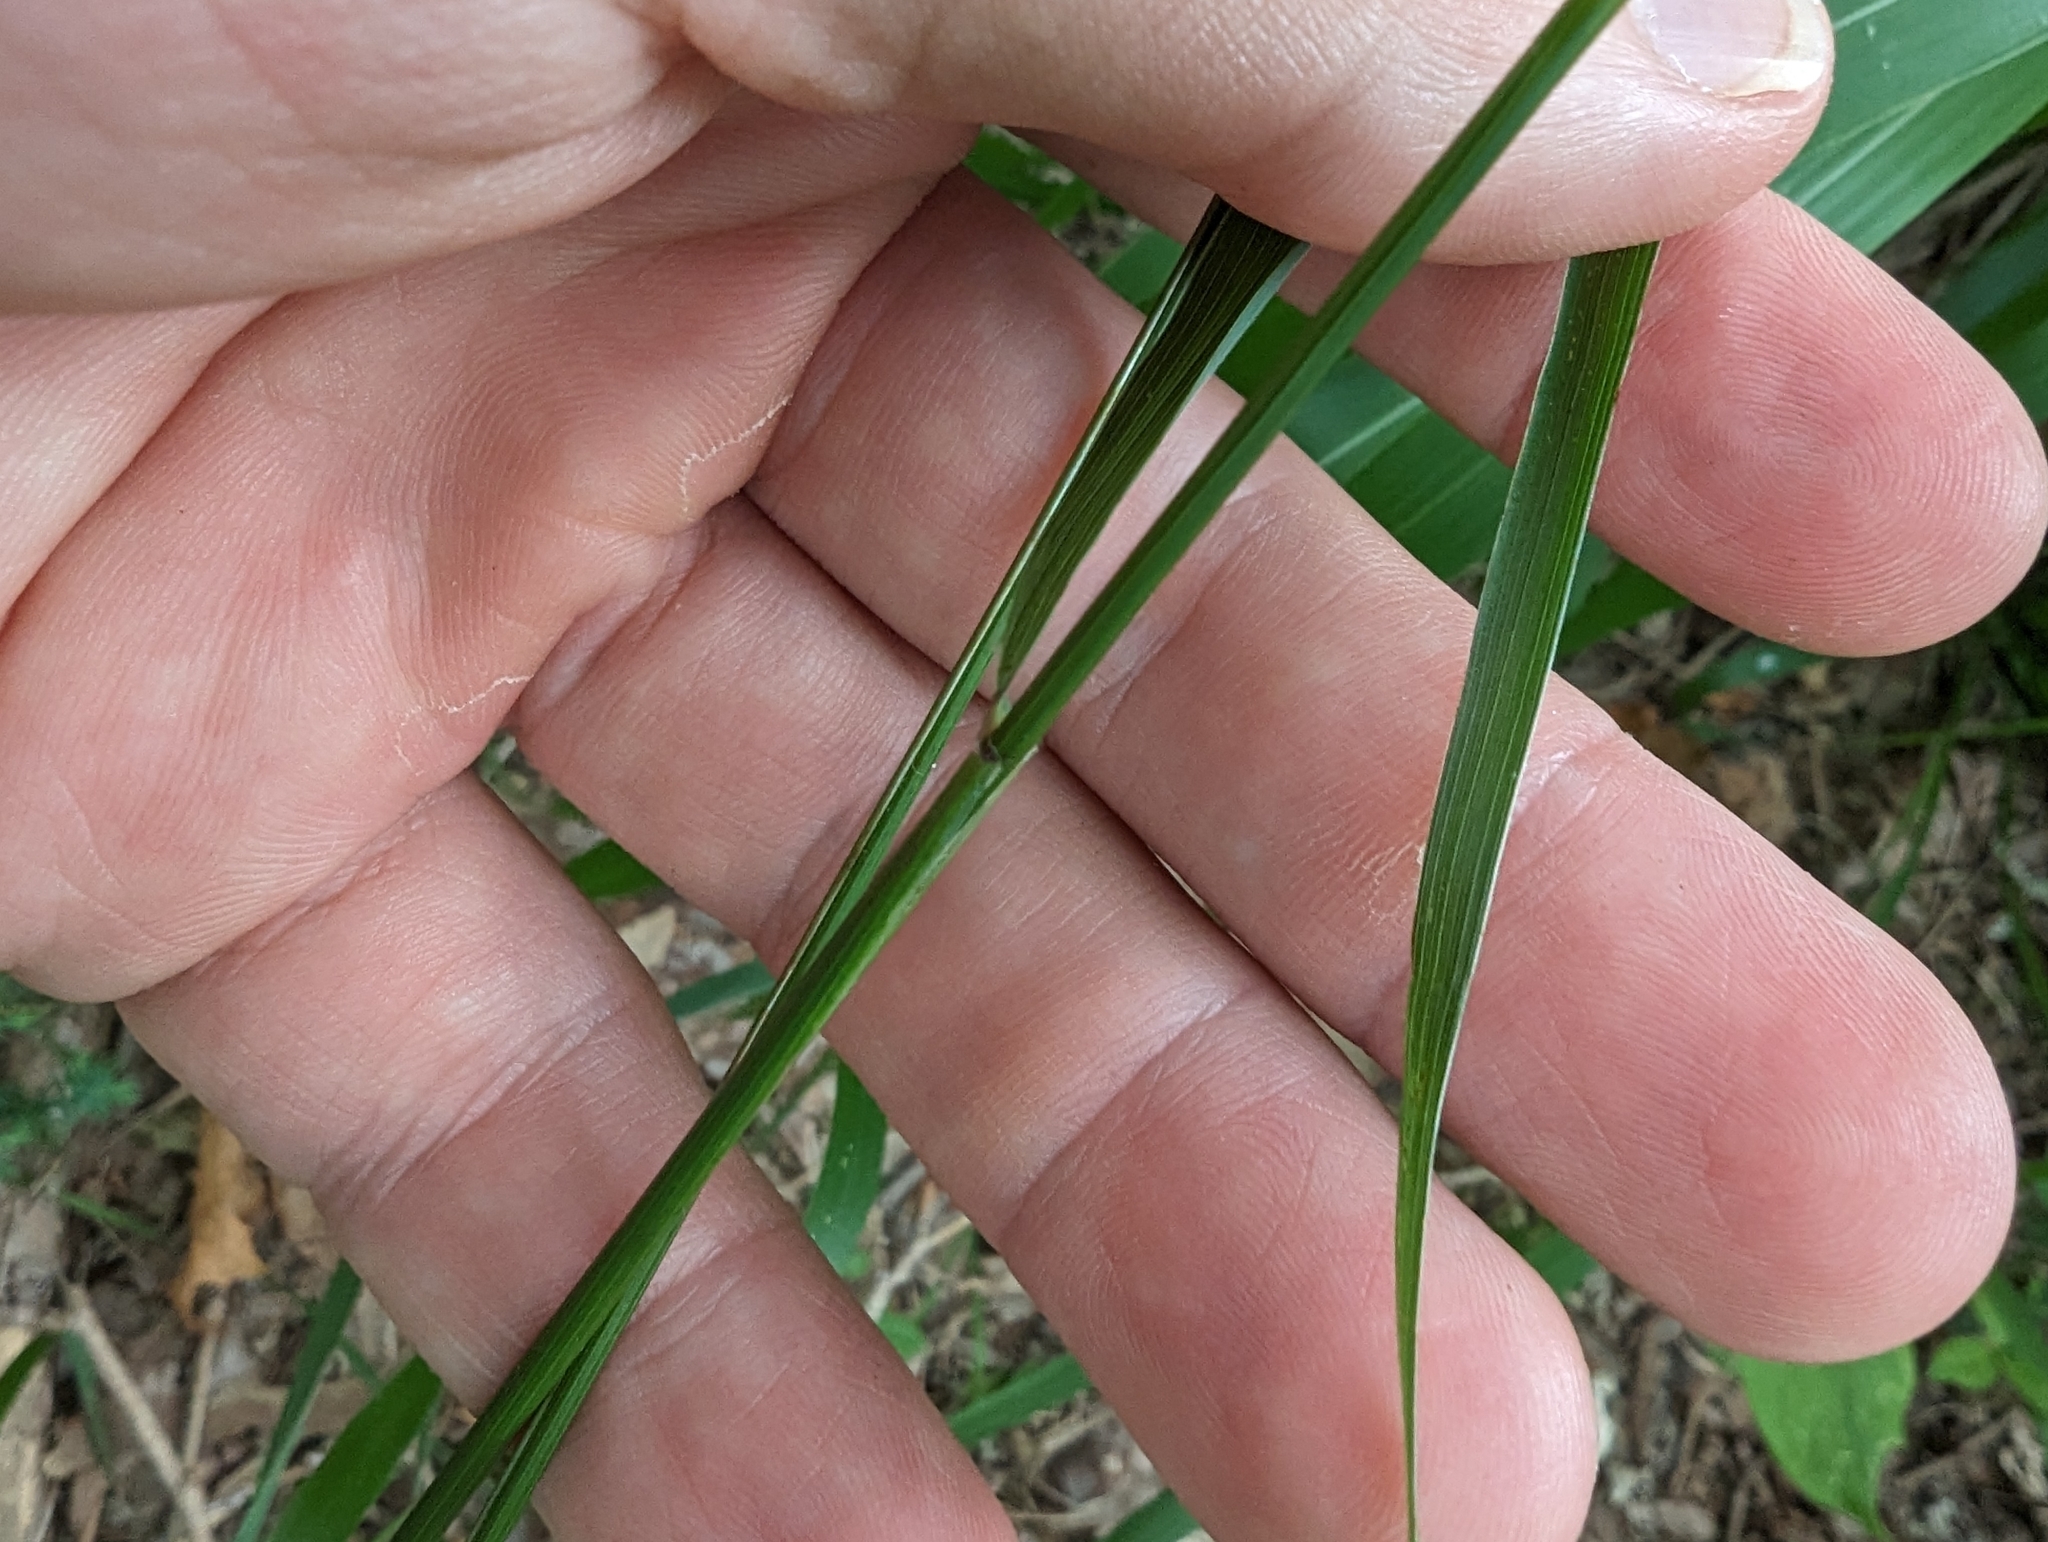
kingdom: Plantae
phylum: Tracheophyta
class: Liliopsida
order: Poales
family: Poaceae
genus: Elymus
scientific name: Elymus interruptus
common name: Southwestern wild rye
